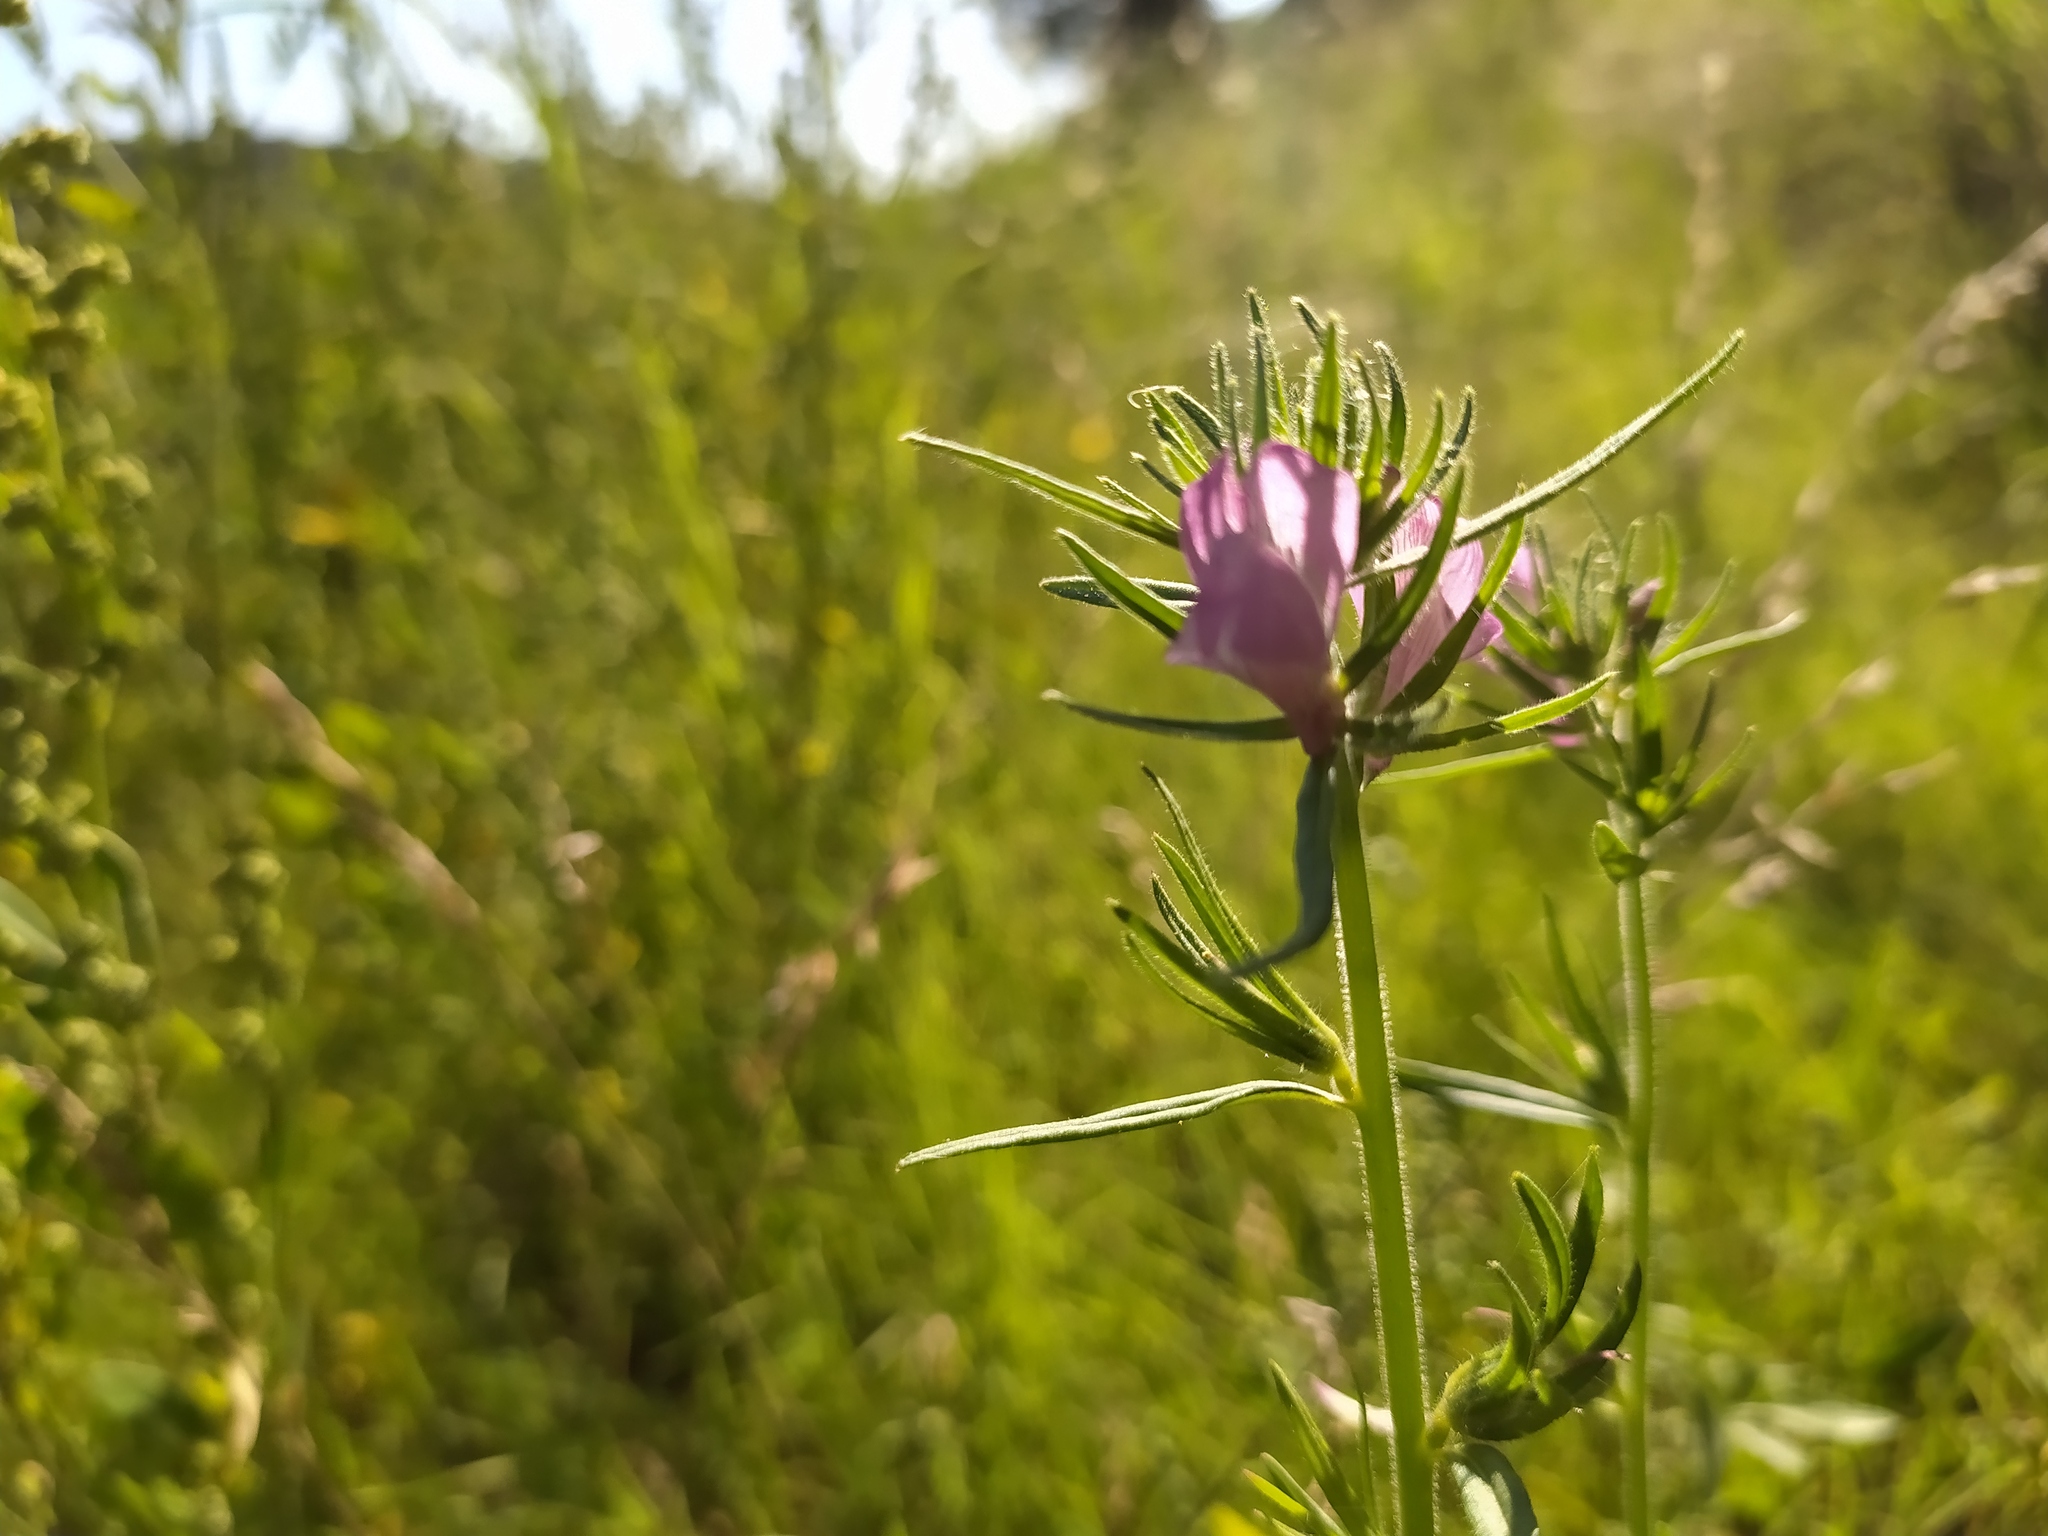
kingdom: Plantae
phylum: Tracheophyta
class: Magnoliopsida
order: Lamiales
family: Plantaginaceae
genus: Misopates
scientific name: Misopates orontium
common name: Weasel's-snout
